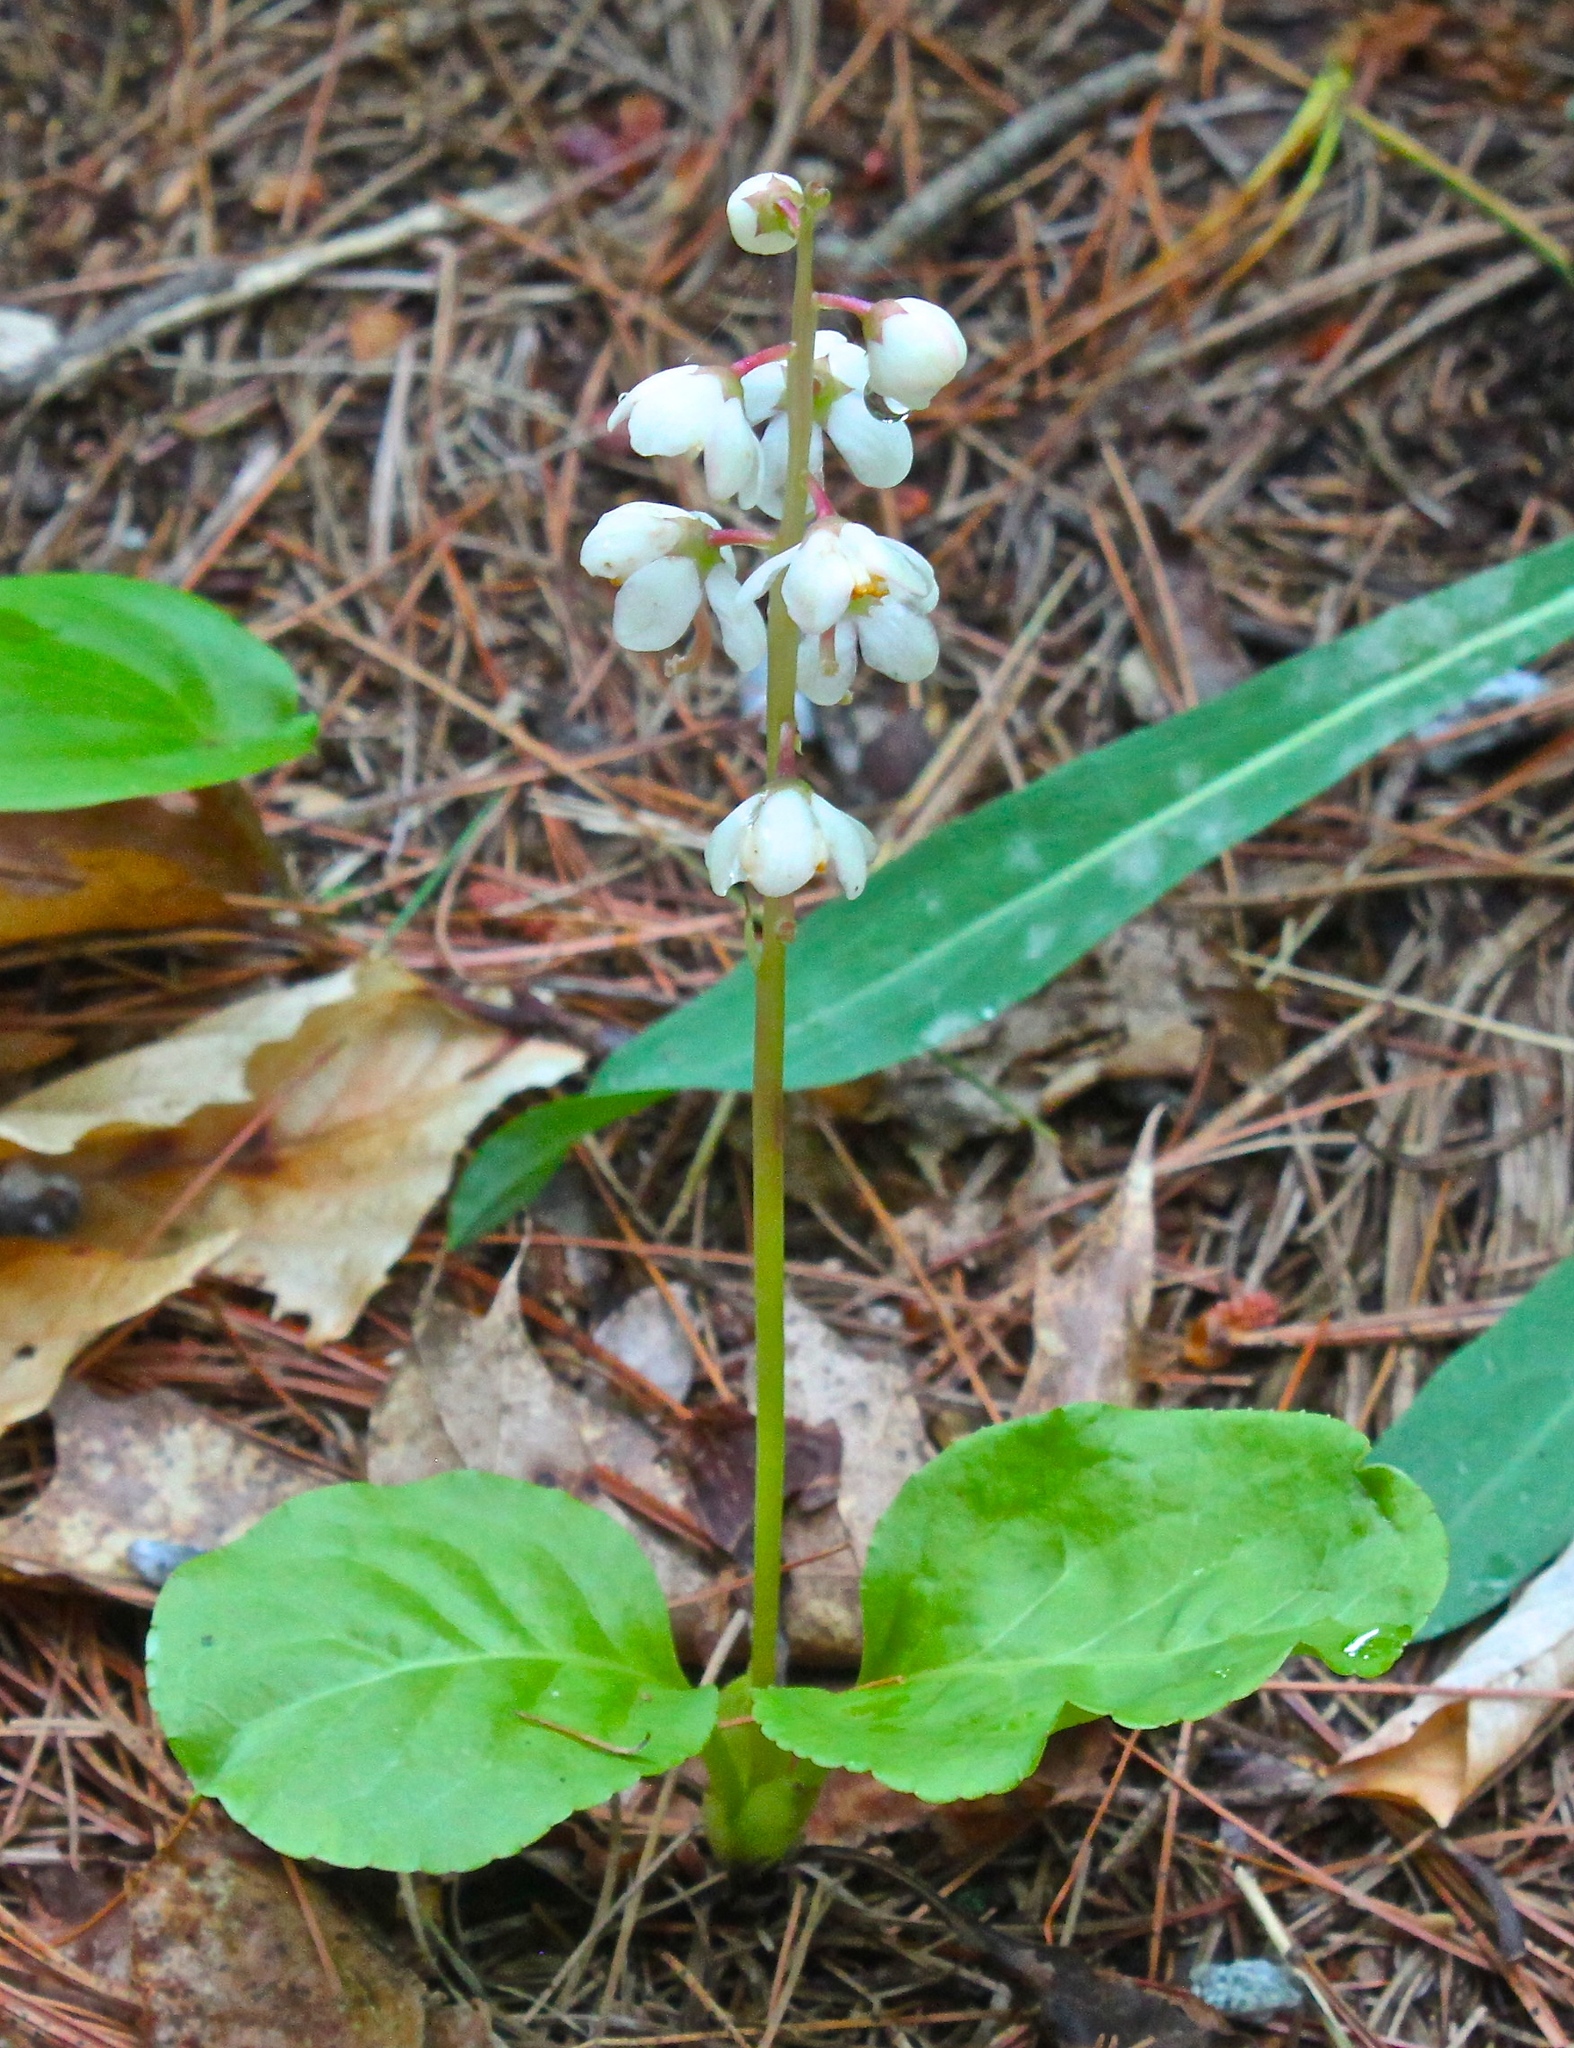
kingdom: Plantae
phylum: Tracheophyta
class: Magnoliopsida
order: Ericales
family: Ericaceae
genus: Pyrola
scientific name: Pyrola elliptica
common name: Shinleaf
